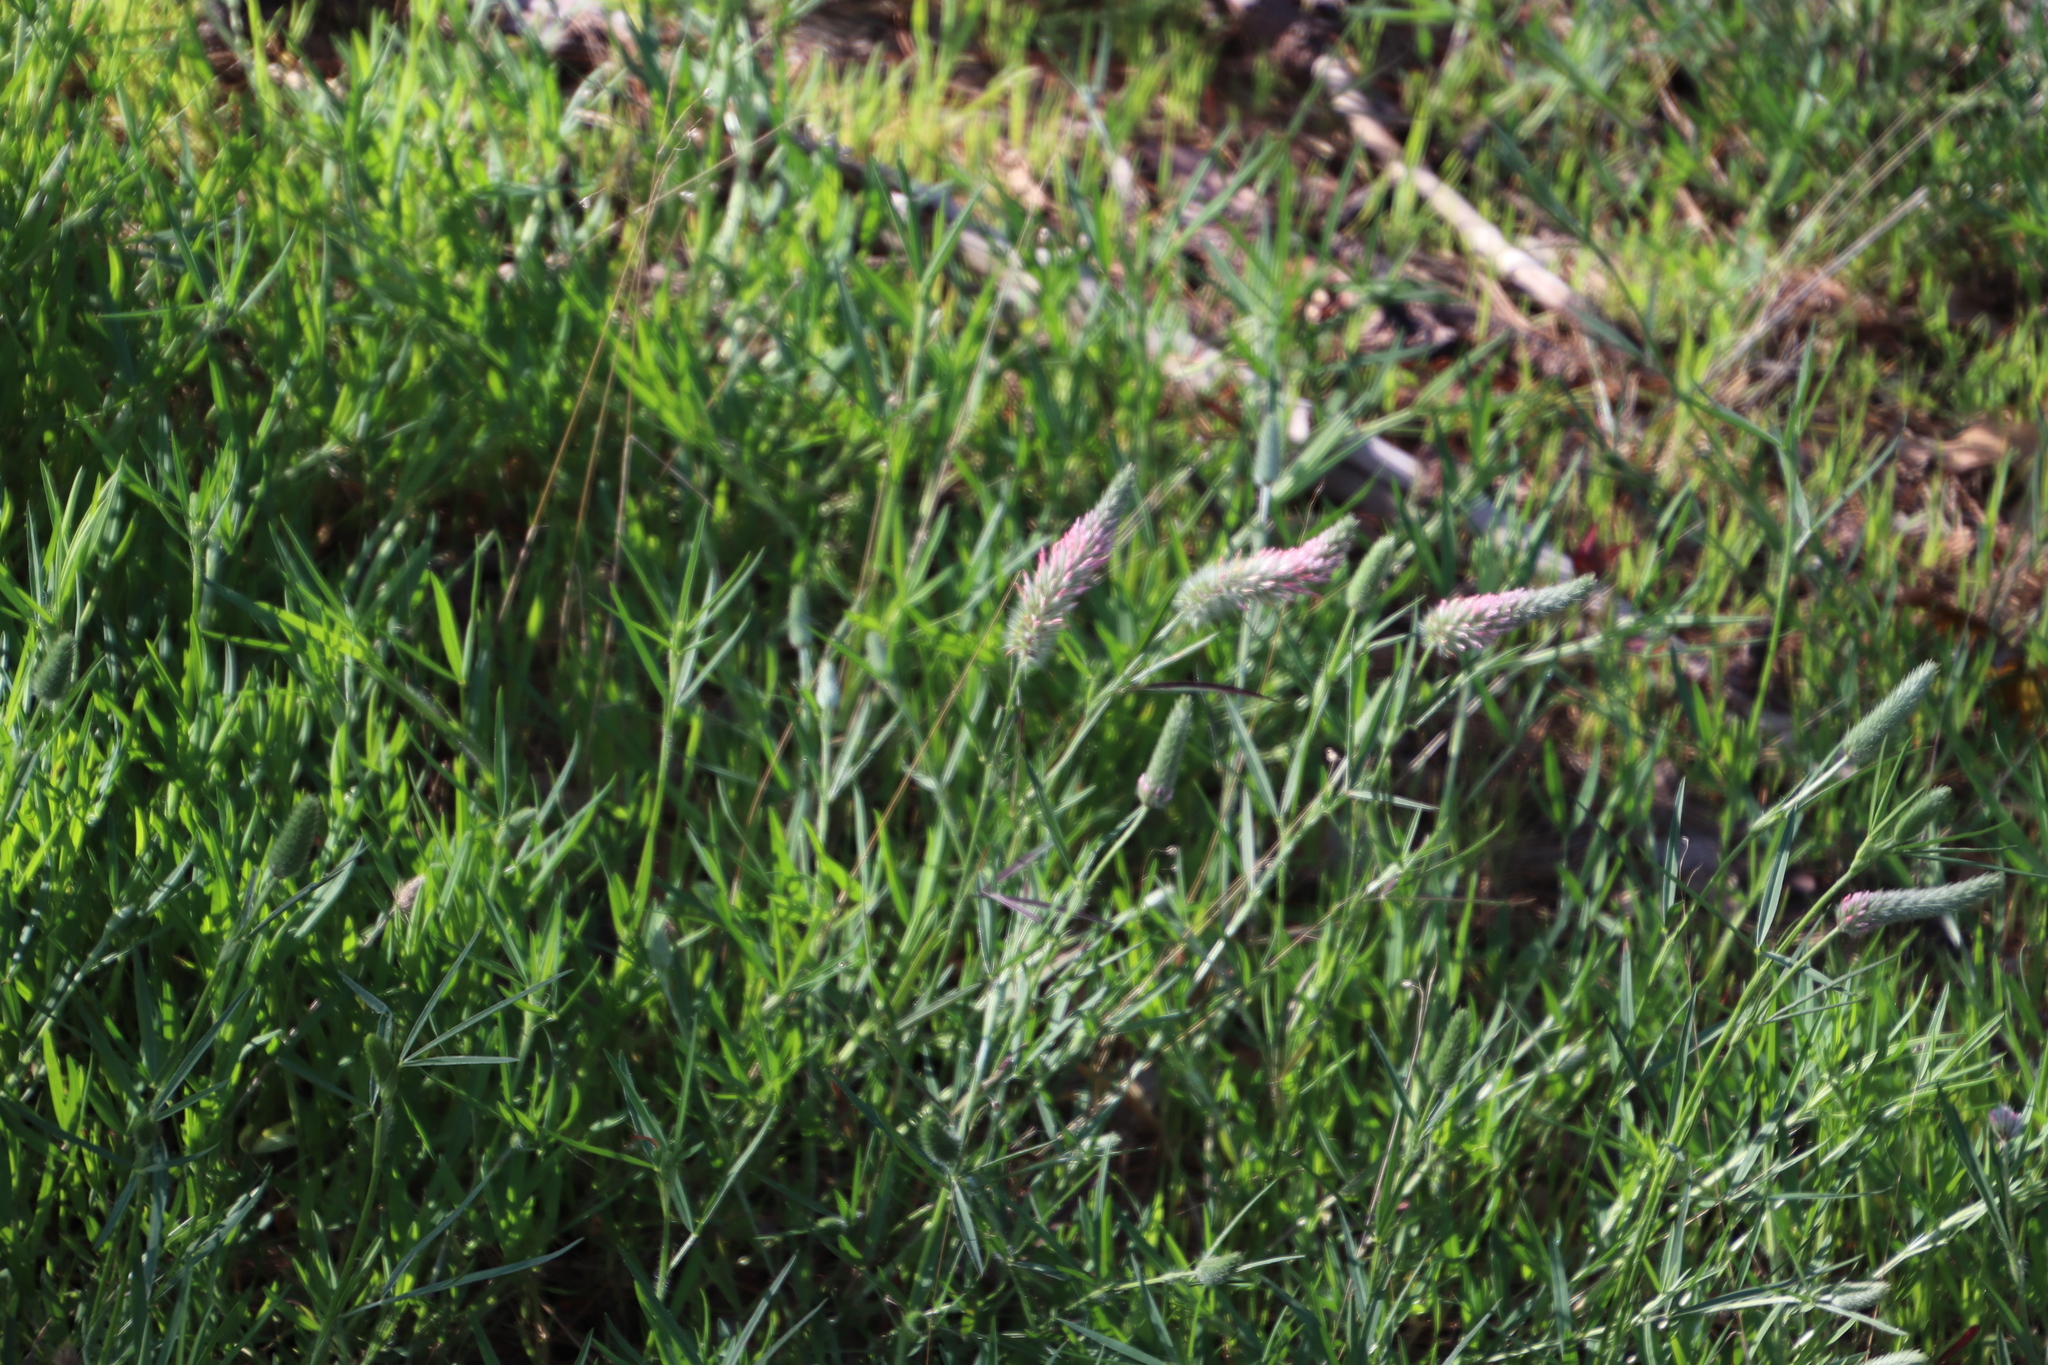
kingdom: Plantae
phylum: Tracheophyta
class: Magnoliopsida
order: Fabales
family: Fabaceae
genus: Trifolium
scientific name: Trifolium angustifolium
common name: Narrow clover
